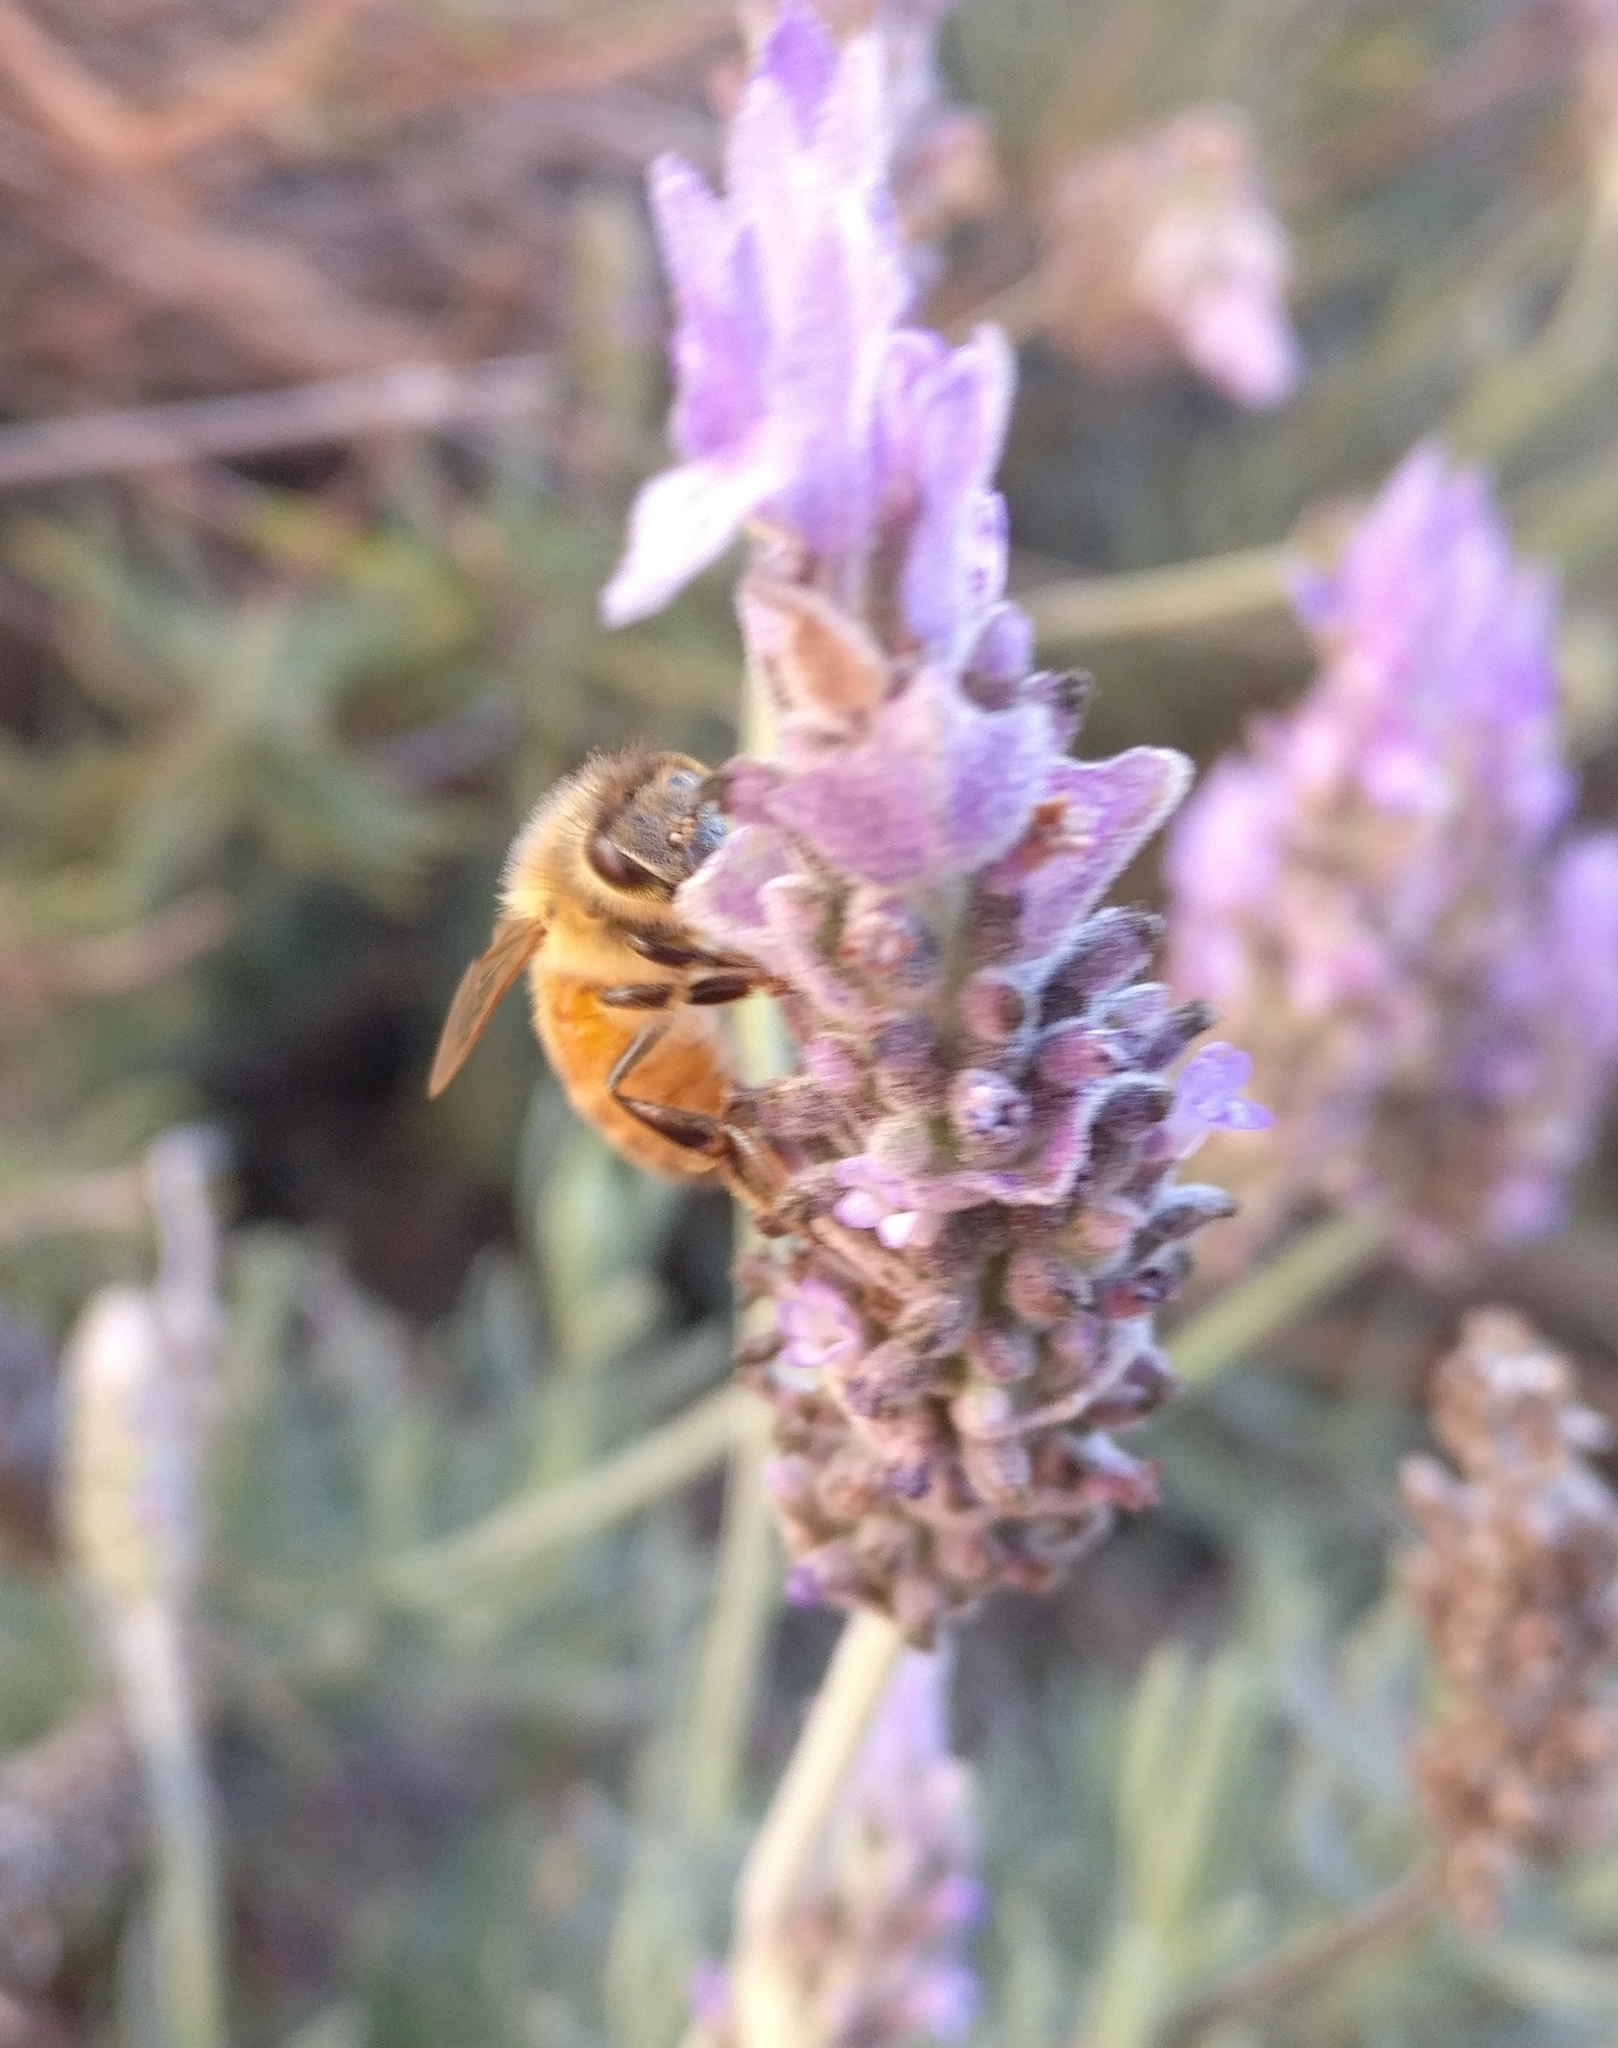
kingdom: Animalia
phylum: Arthropoda
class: Insecta
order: Hymenoptera
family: Apidae
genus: Apis
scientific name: Apis mellifera
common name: Honey bee
